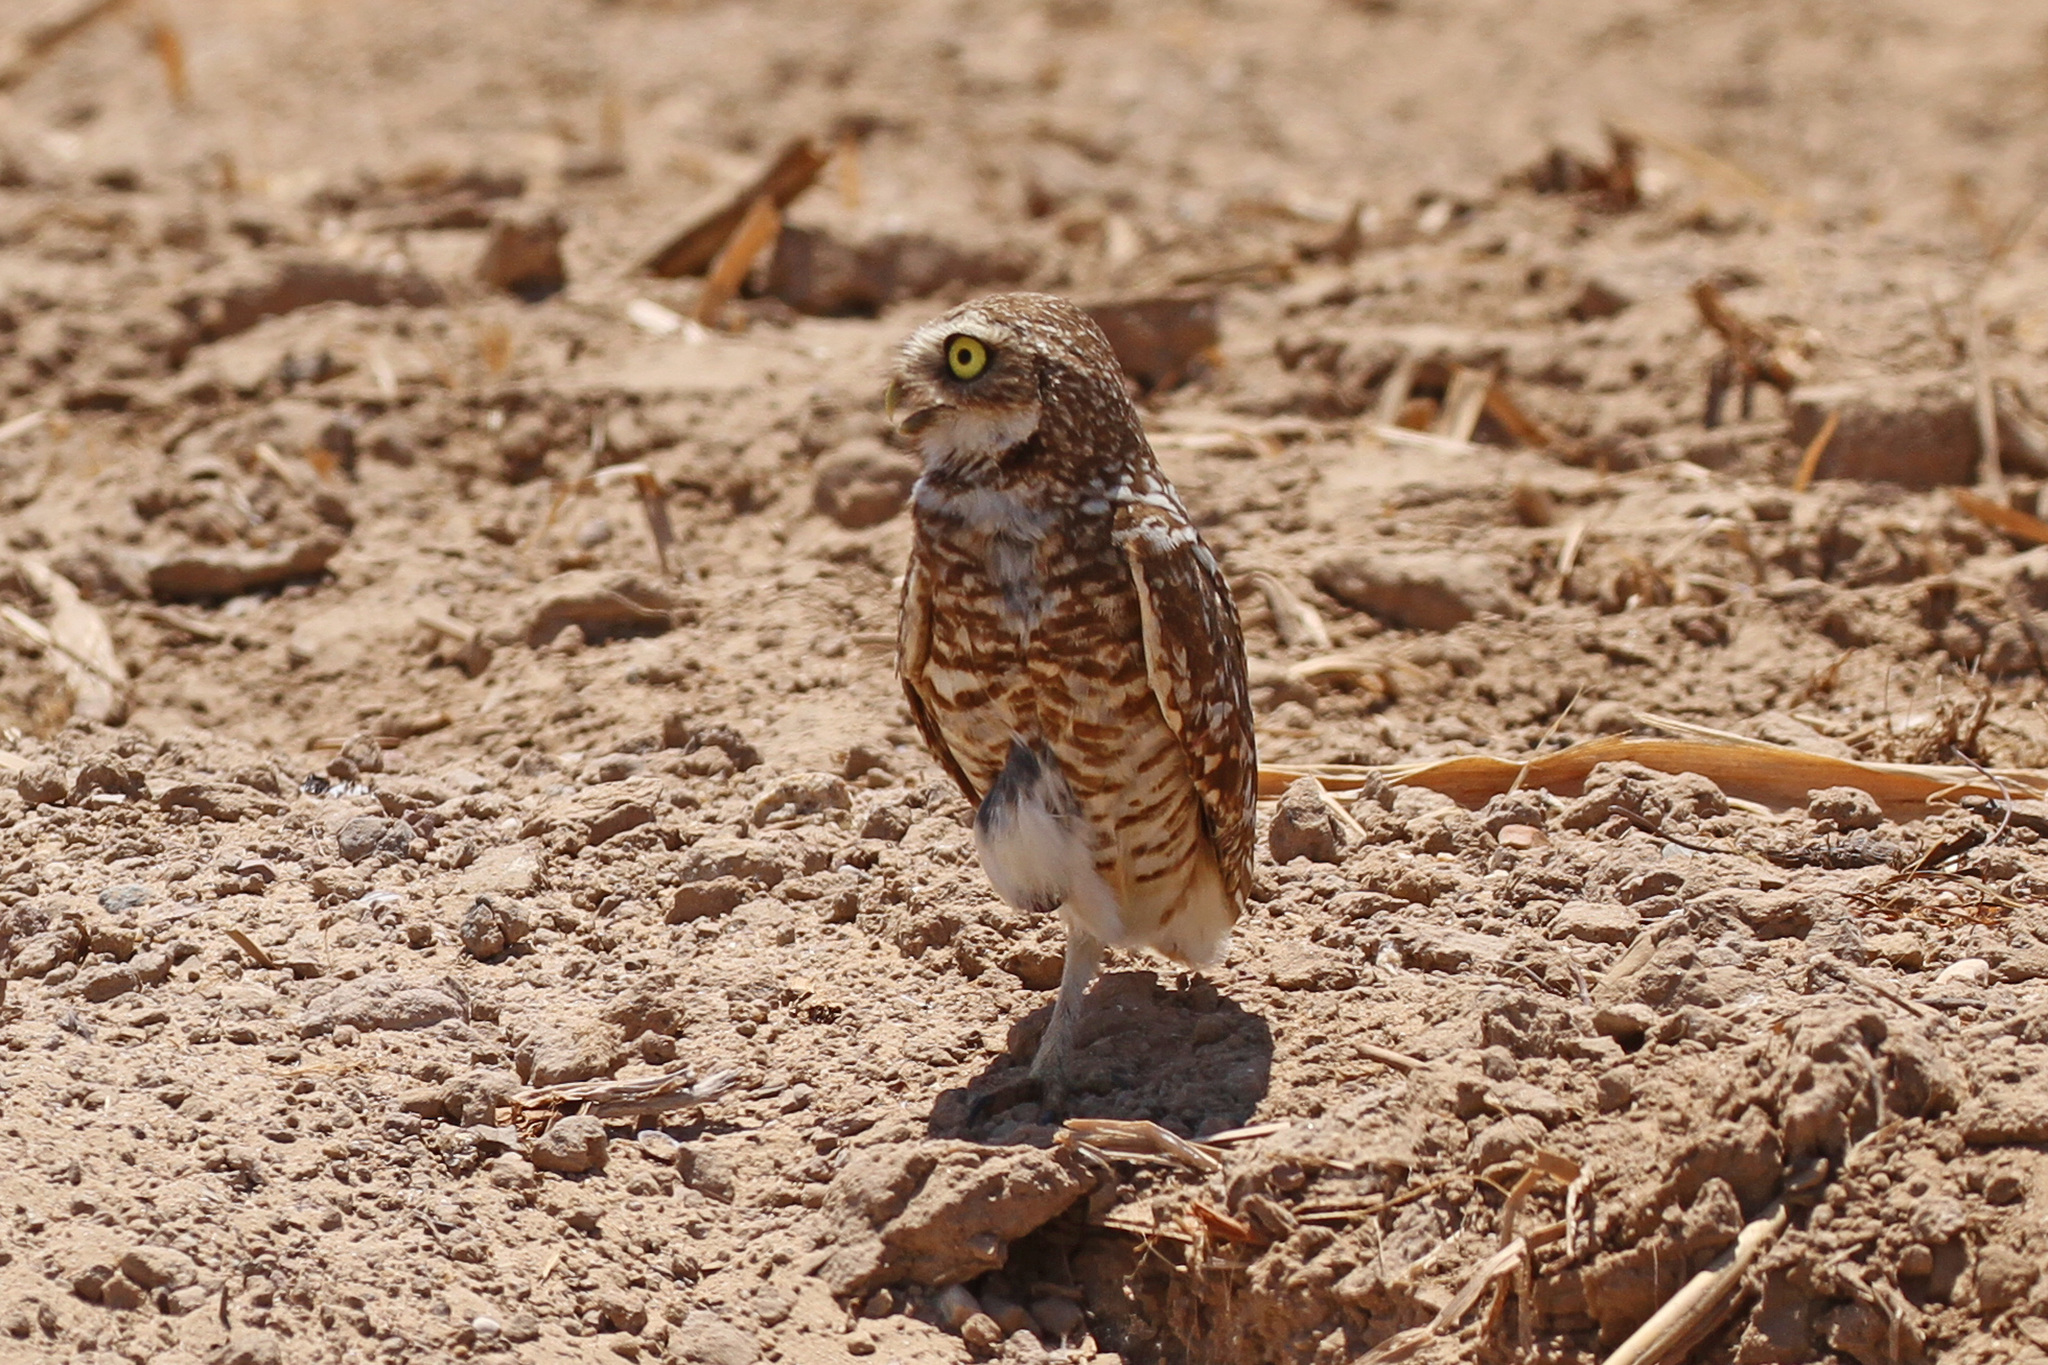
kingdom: Animalia
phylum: Chordata
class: Aves
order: Strigiformes
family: Strigidae
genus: Athene
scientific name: Athene cunicularia
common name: Burrowing owl
